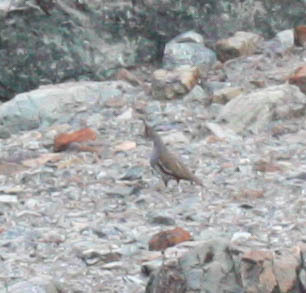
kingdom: Animalia
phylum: Chordata
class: Aves
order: Galliformes
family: Odontophoridae
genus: Oreortyx
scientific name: Oreortyx pictus
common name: Mountain quail
